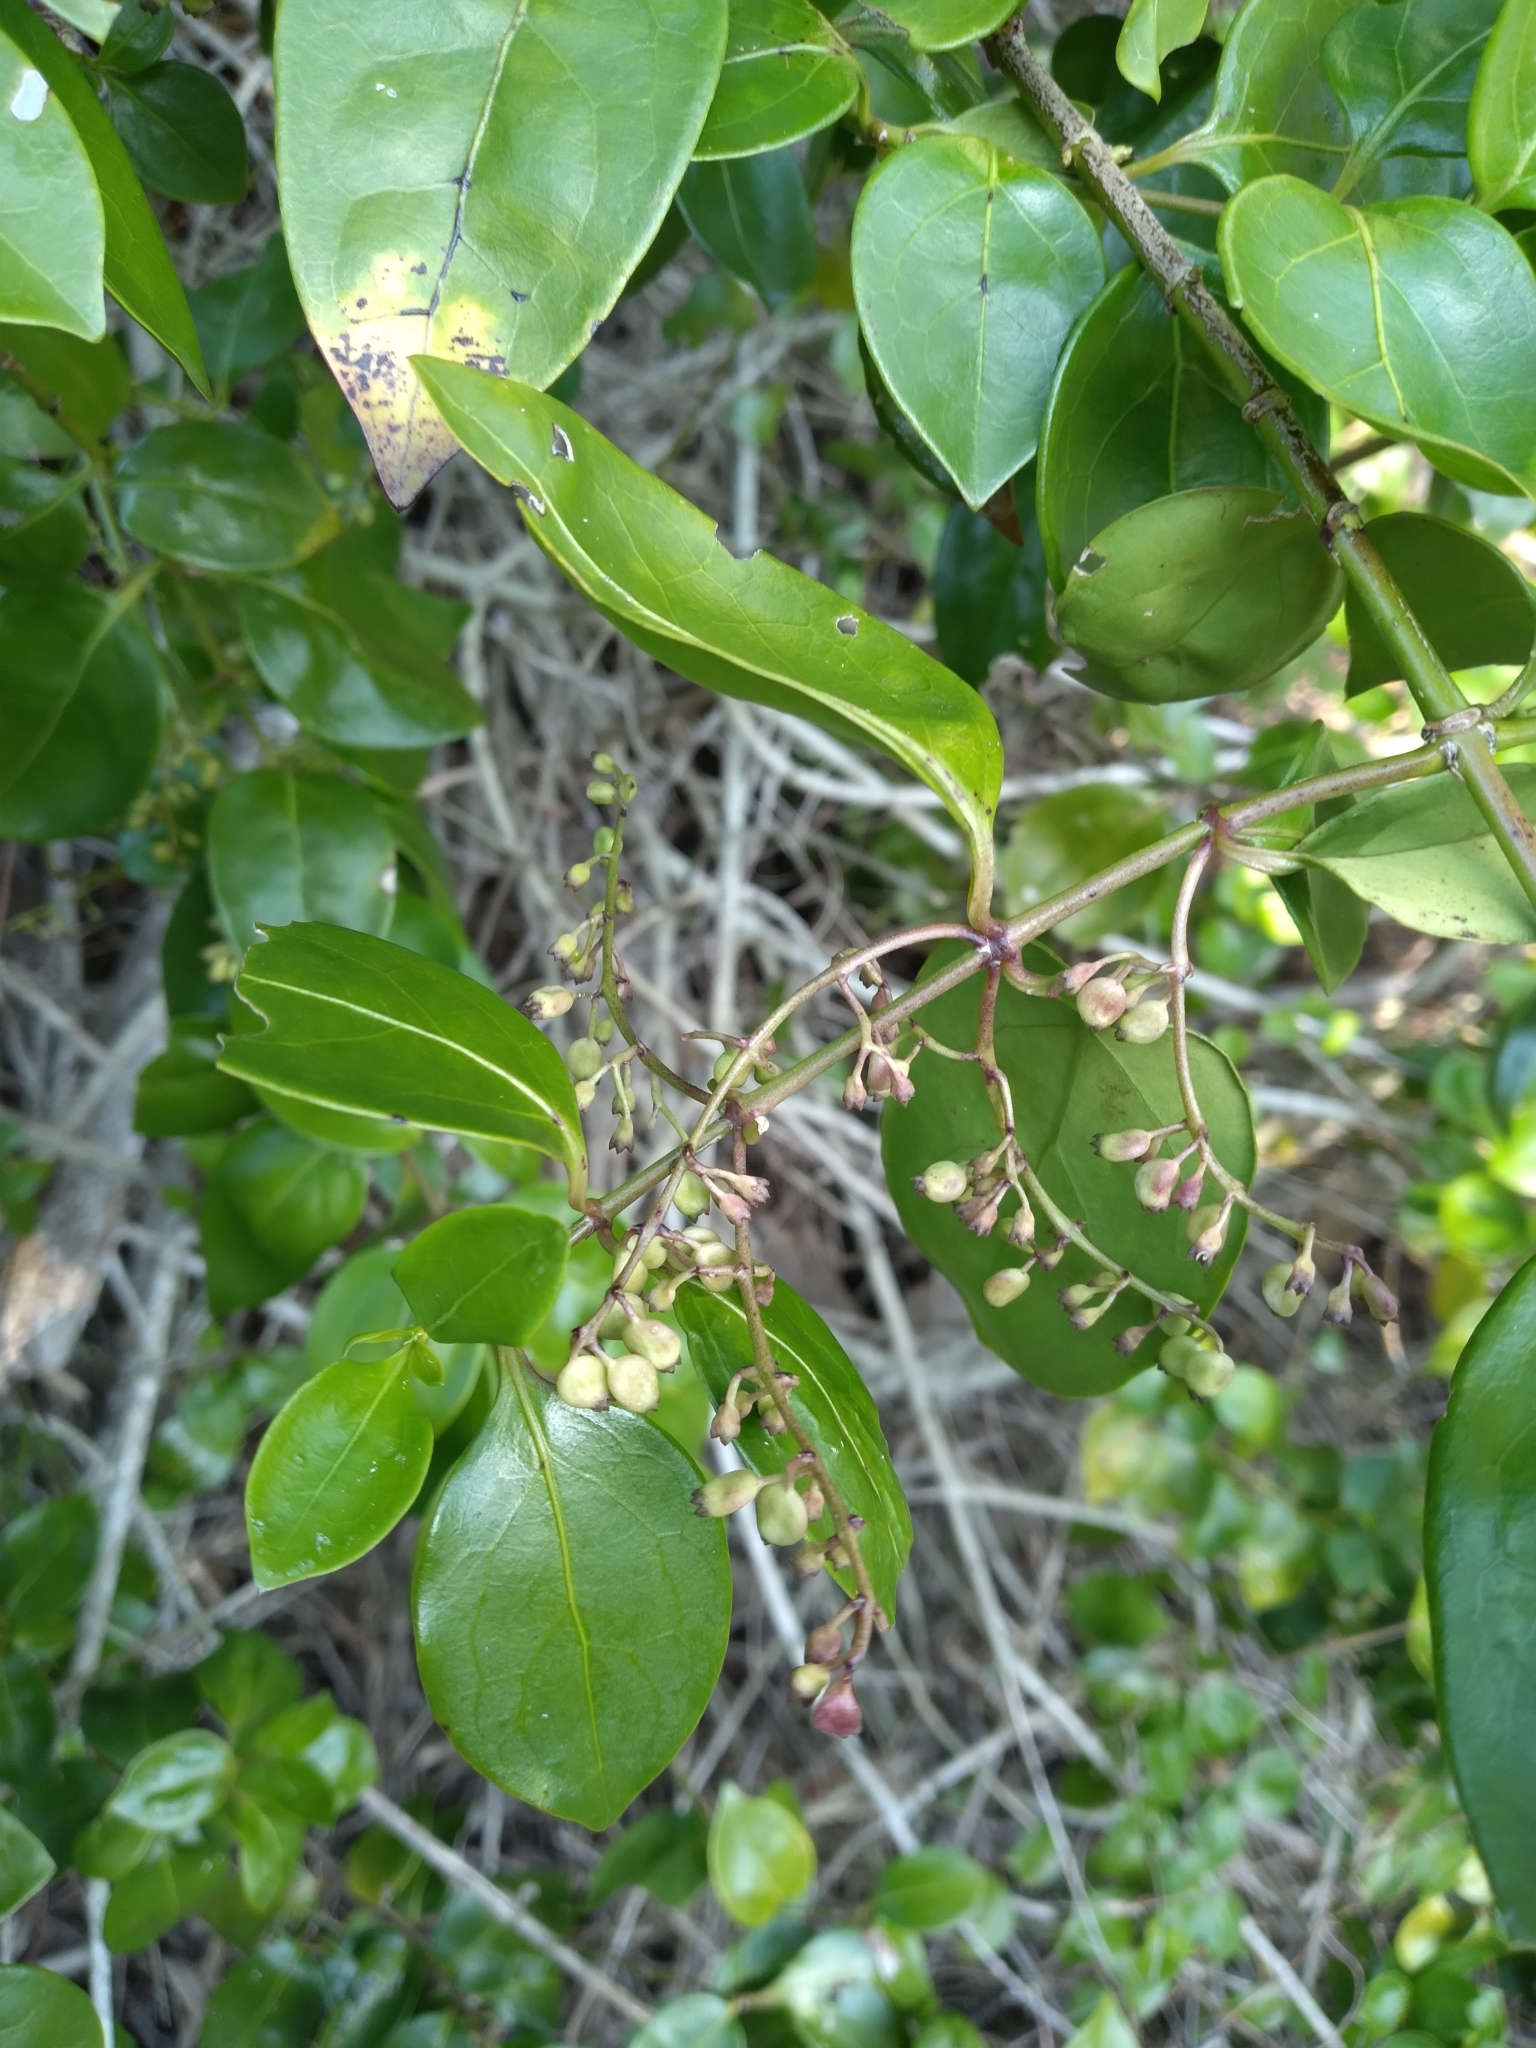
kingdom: Plantae
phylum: Tracheophyta
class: Magnoliopsida
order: Gentianales
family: Rubiaceae
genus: Chiococca
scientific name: Chiococca alba
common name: Snowberry
